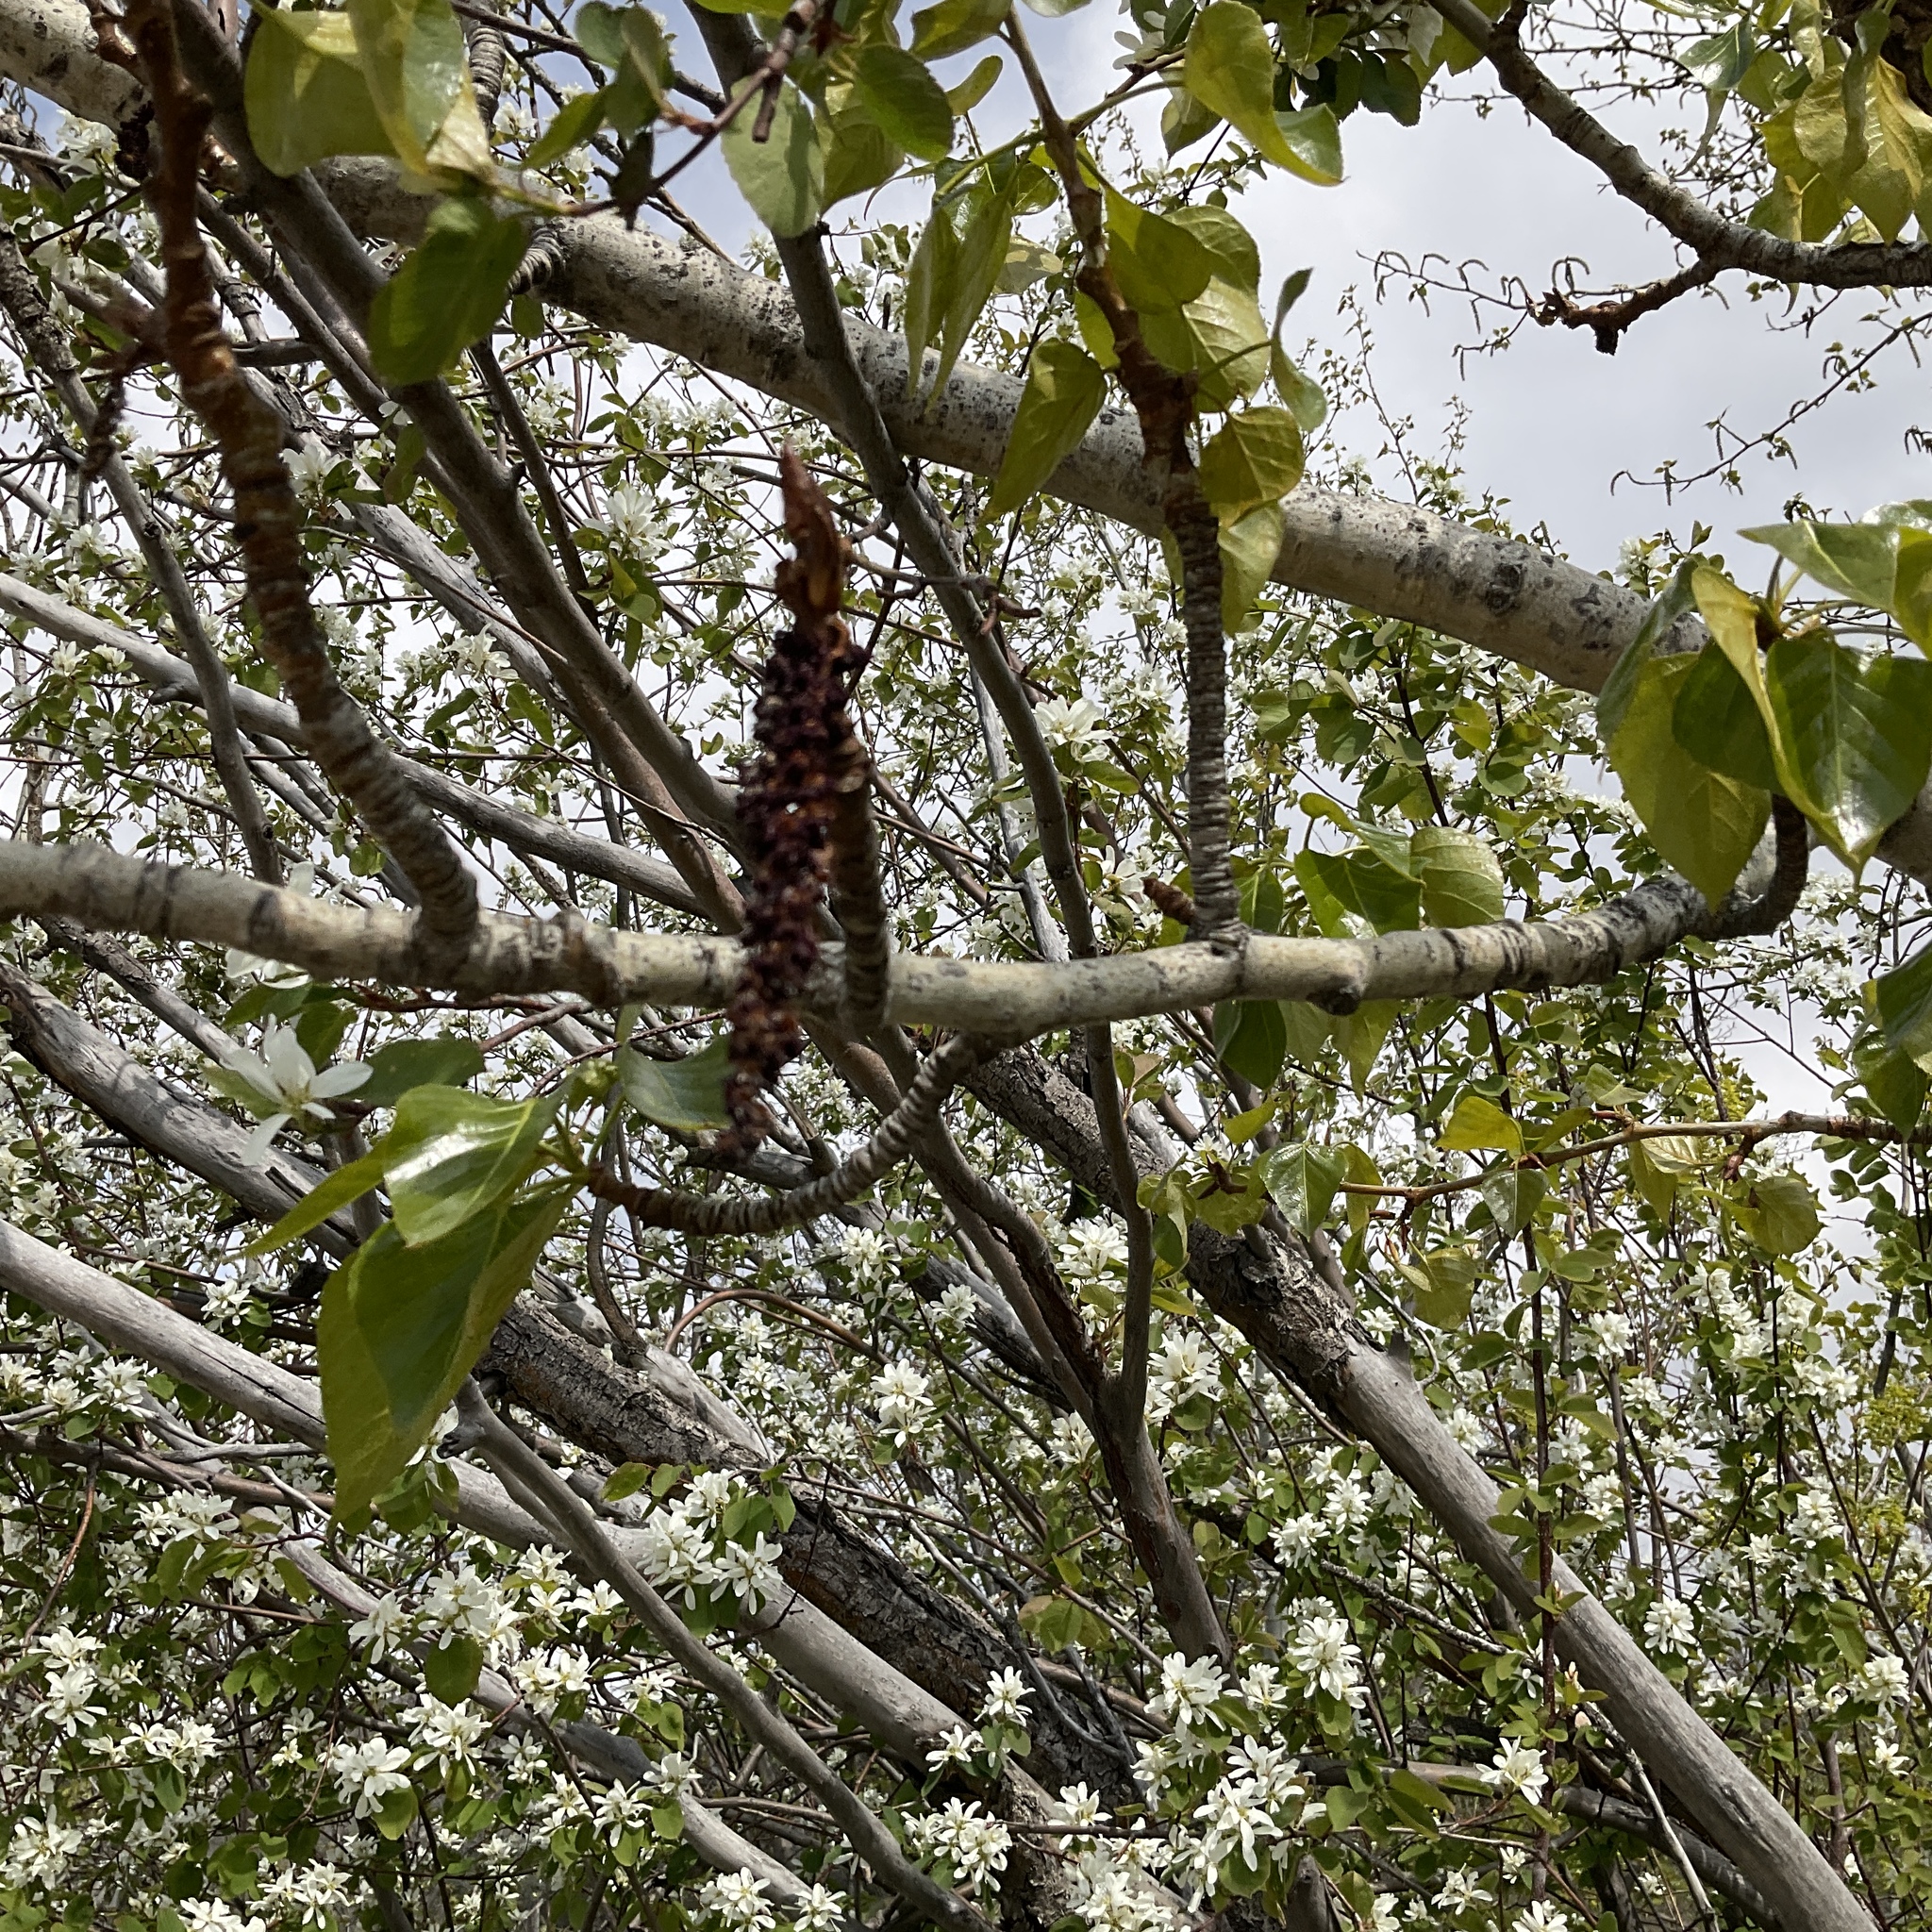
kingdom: Plantae
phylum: Tracheophyta
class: Magnoliopsida
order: Malpighiales
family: Salicaceae
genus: Populus
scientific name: Populus trichocarpa
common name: Black cottonwood
